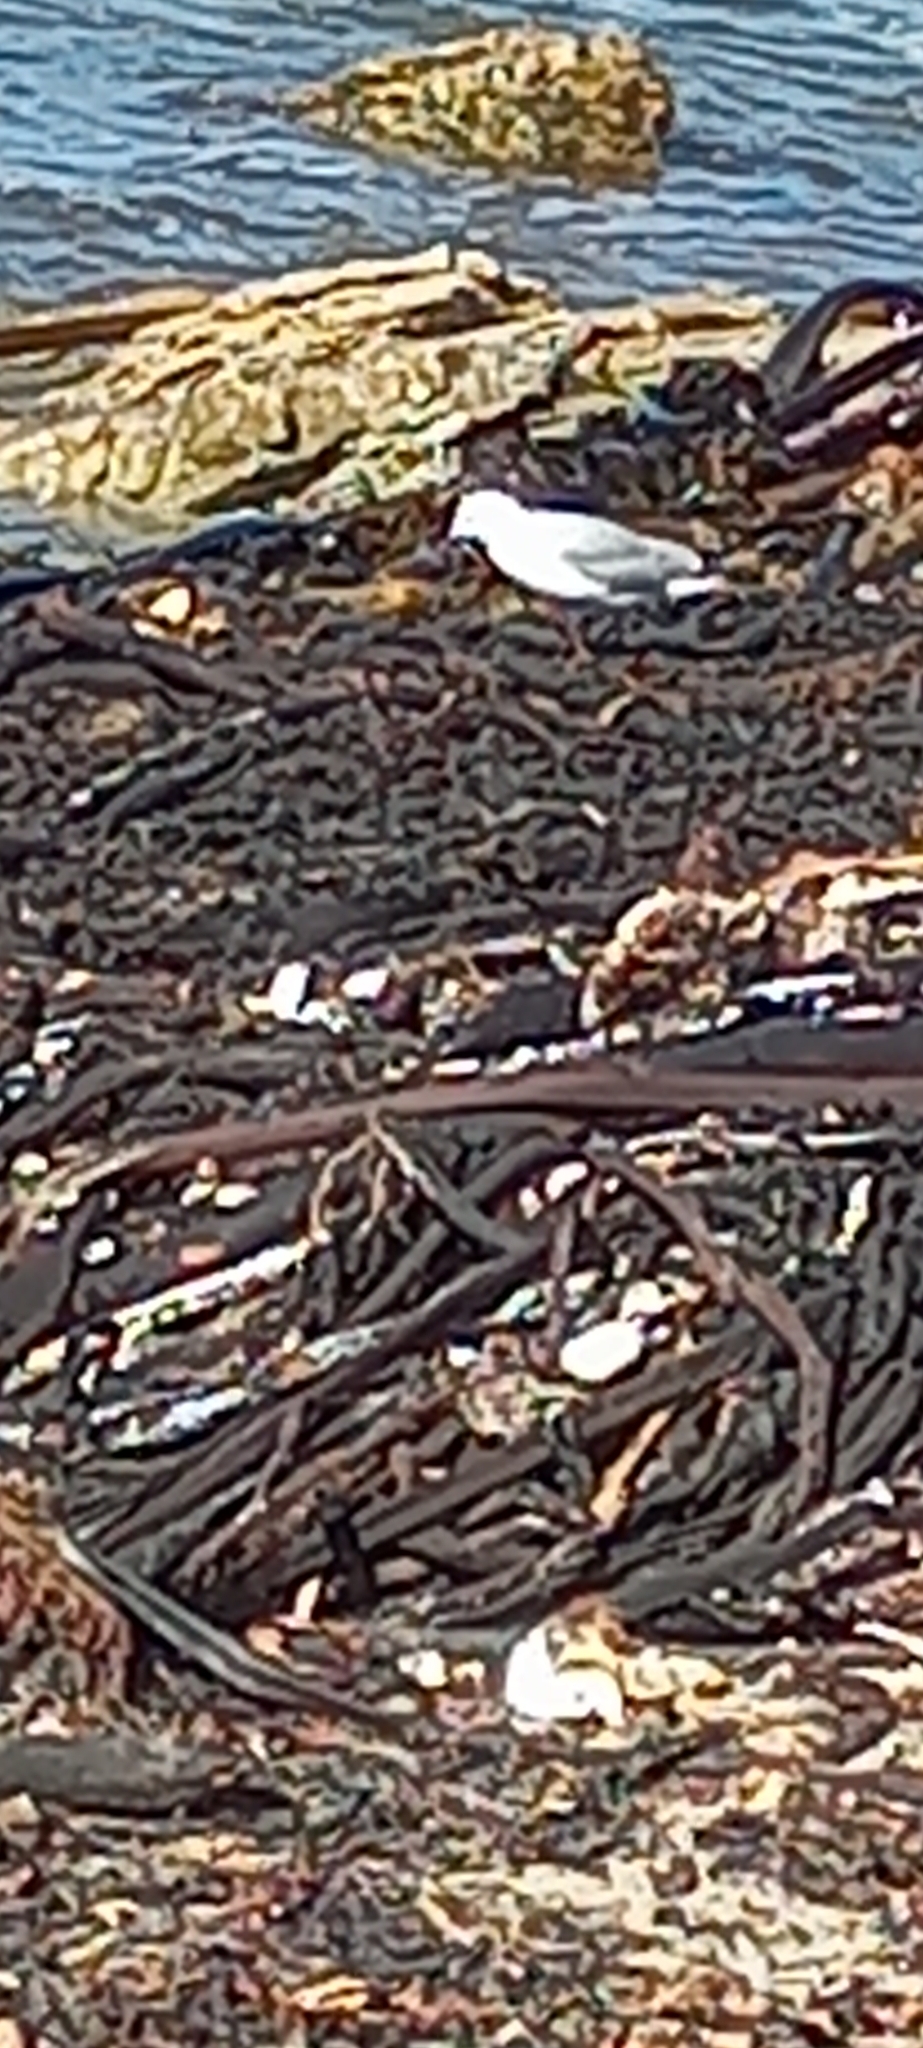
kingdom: Animalia
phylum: Chordata
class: Aves
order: Charadriiformes
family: Laridae
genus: Chroicocephalus
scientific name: Chroicocephalus hartlaubii
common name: Hartlaub's gull
